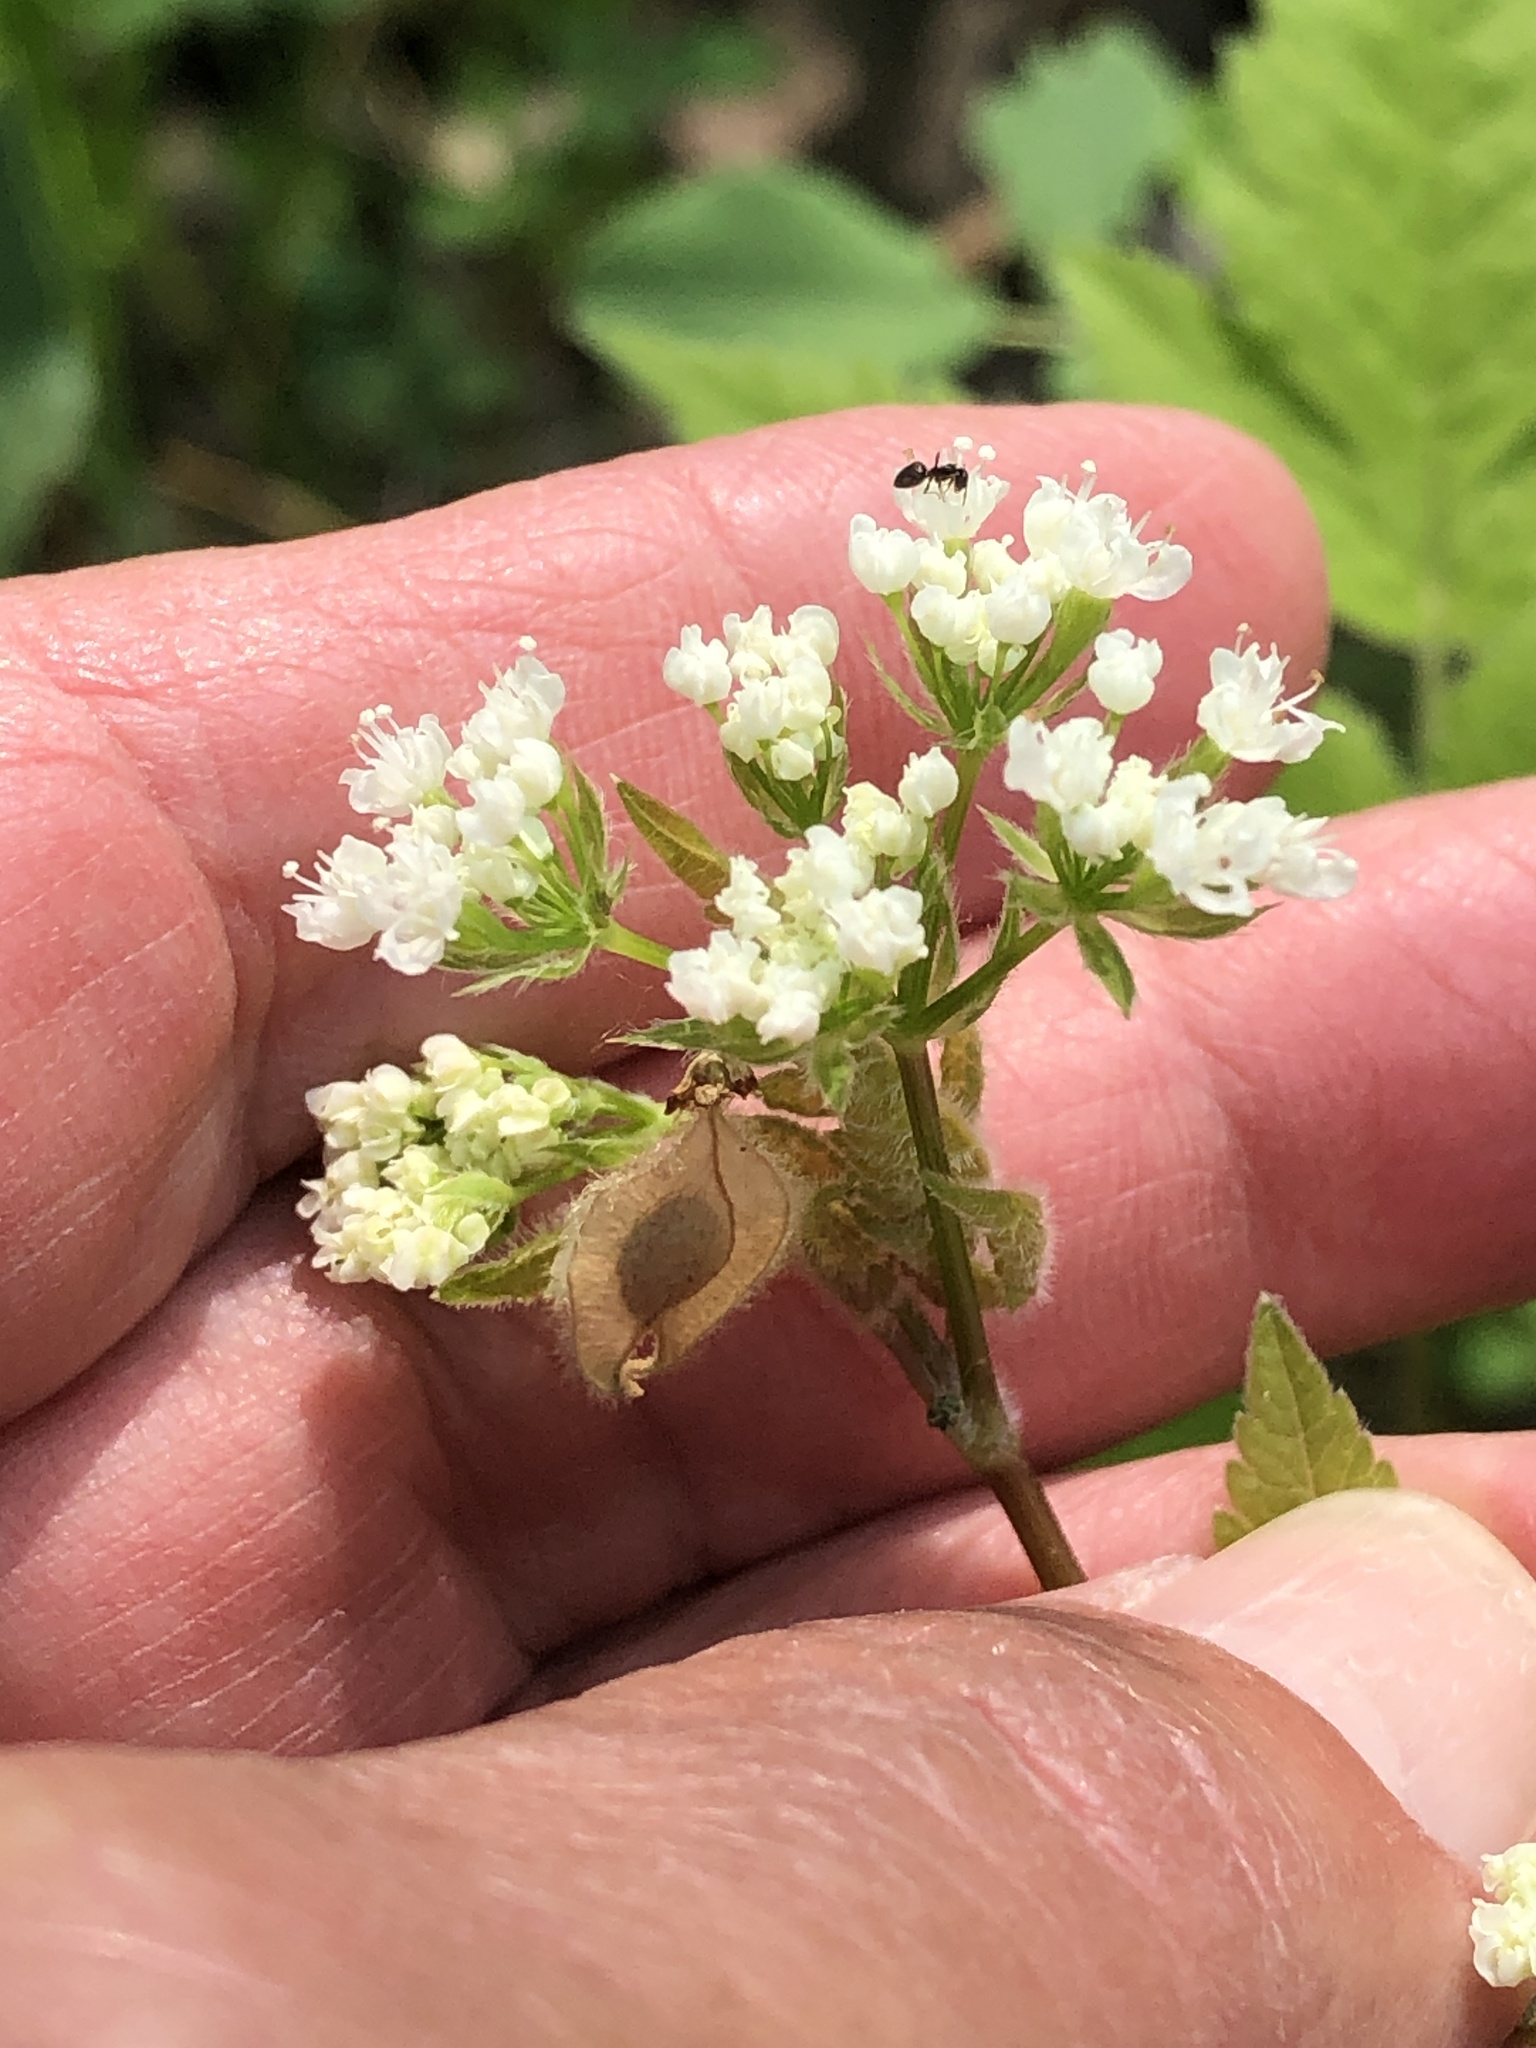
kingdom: Plantae
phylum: Tracheophyta
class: Magnoliopsida
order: Apiales
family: Apiaceae
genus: Osmorhiza
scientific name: Osmorhiza longistylis
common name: Smooth sweet cicely
